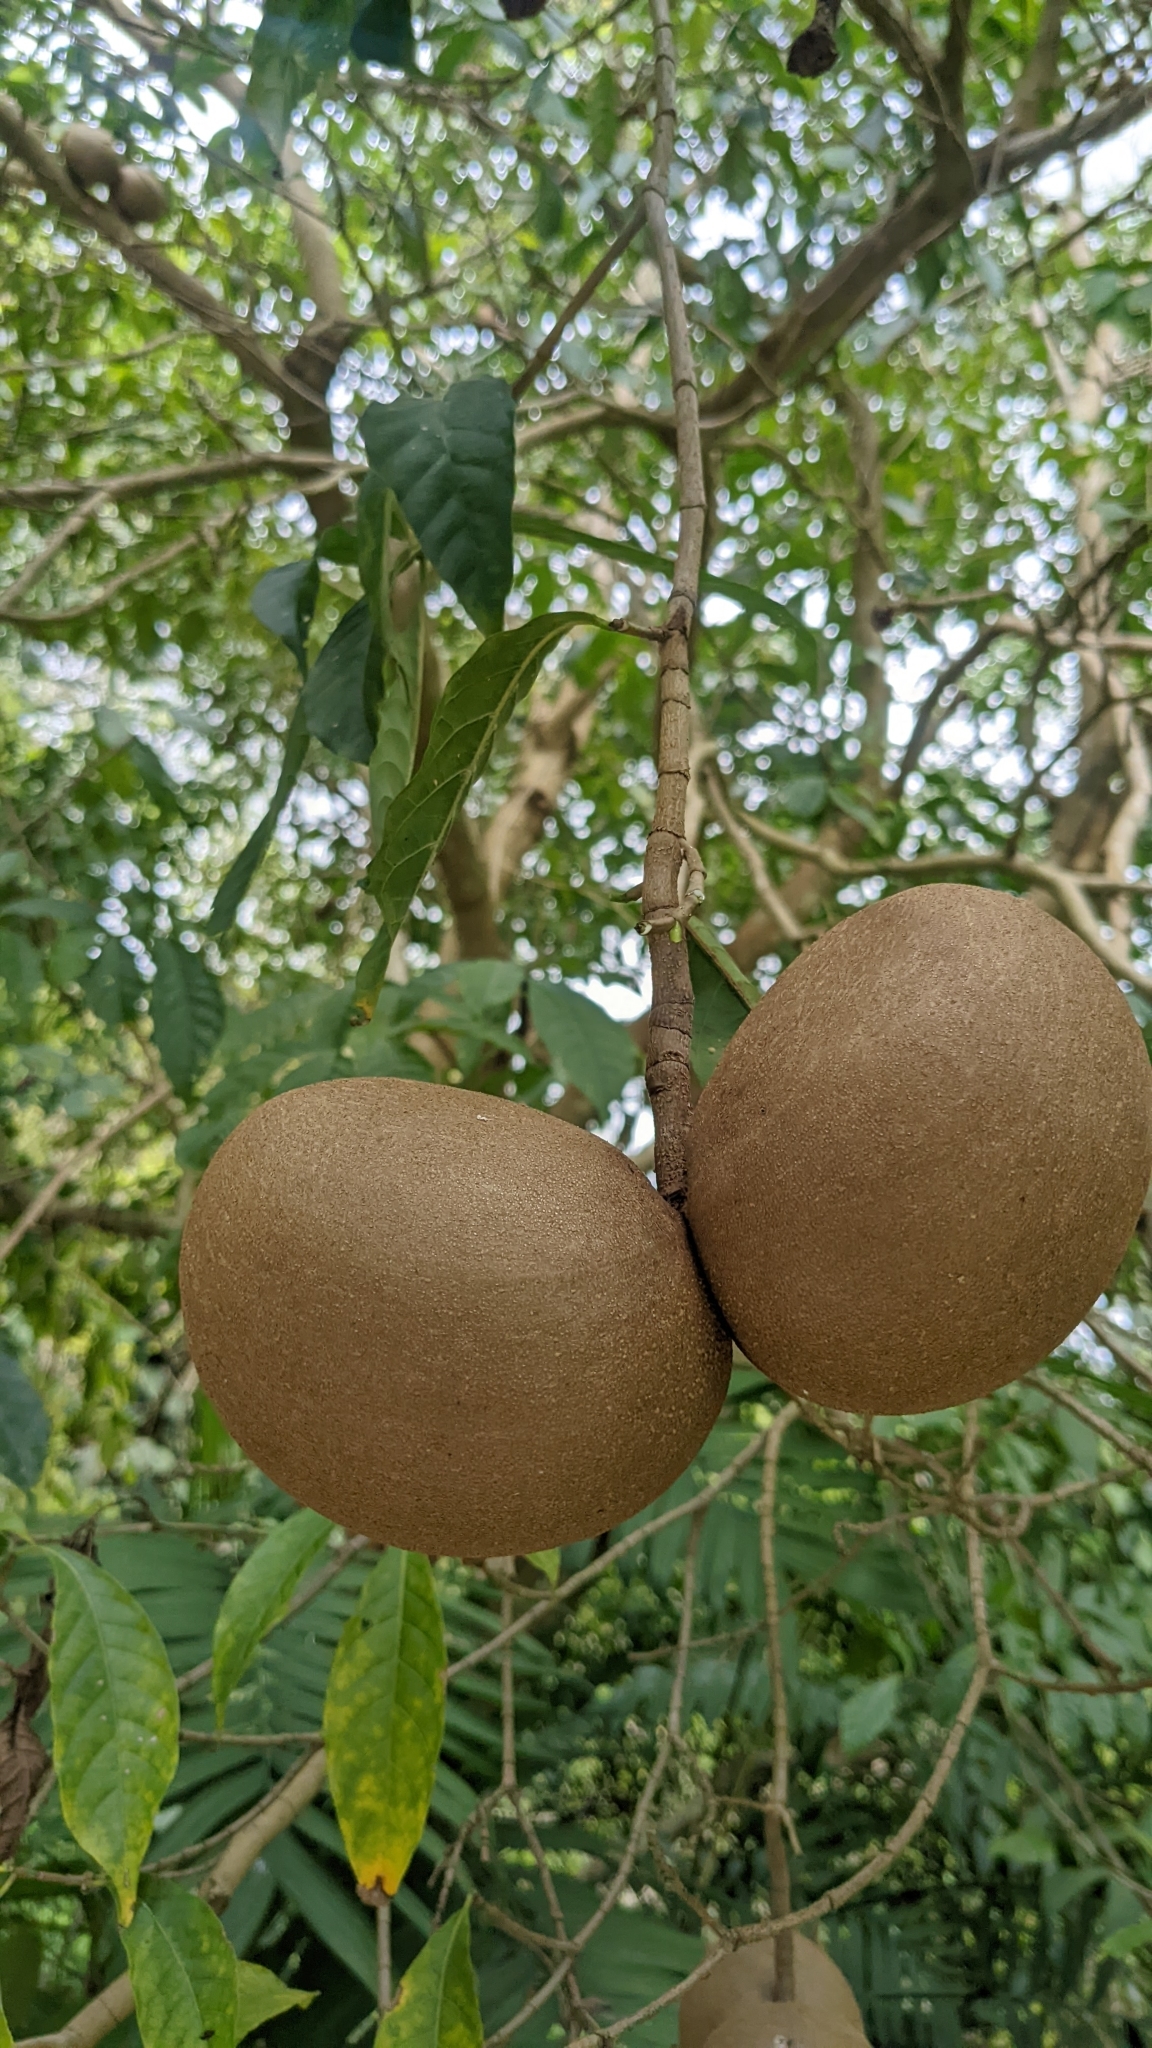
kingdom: Plantae
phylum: Tracheophyta
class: Magnoliopsida
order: Gentianales
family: Apocynaceae
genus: Tabernaemontana
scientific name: Tabernaemontana donnell-smithii
